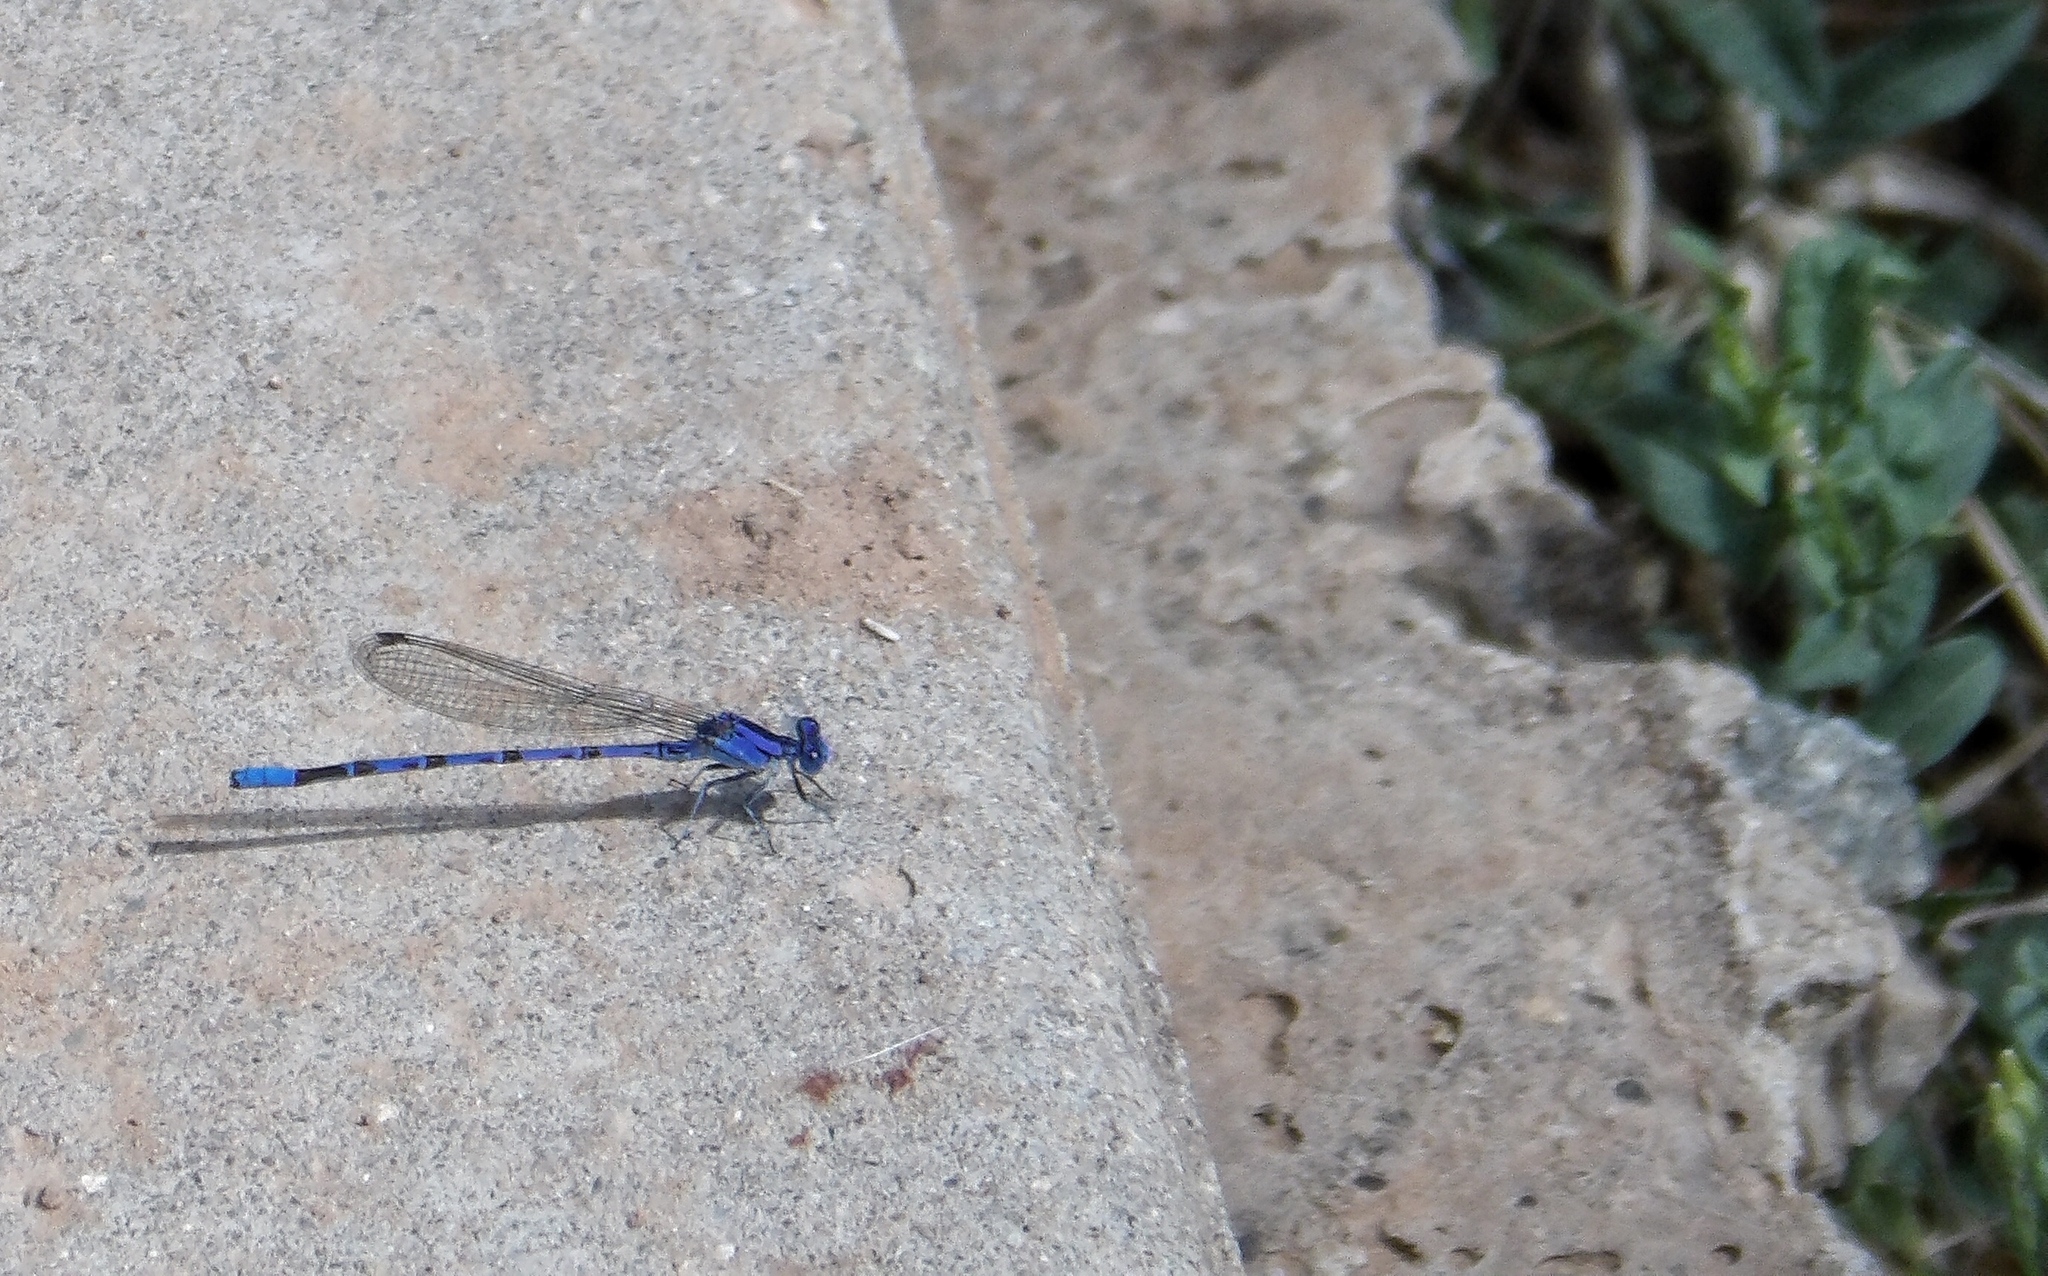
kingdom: Animalia
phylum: Arthropoda
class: Insecta
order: Odonata
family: Coenagrionidae
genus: Argia
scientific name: Argia vivida
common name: Vivid dancer
